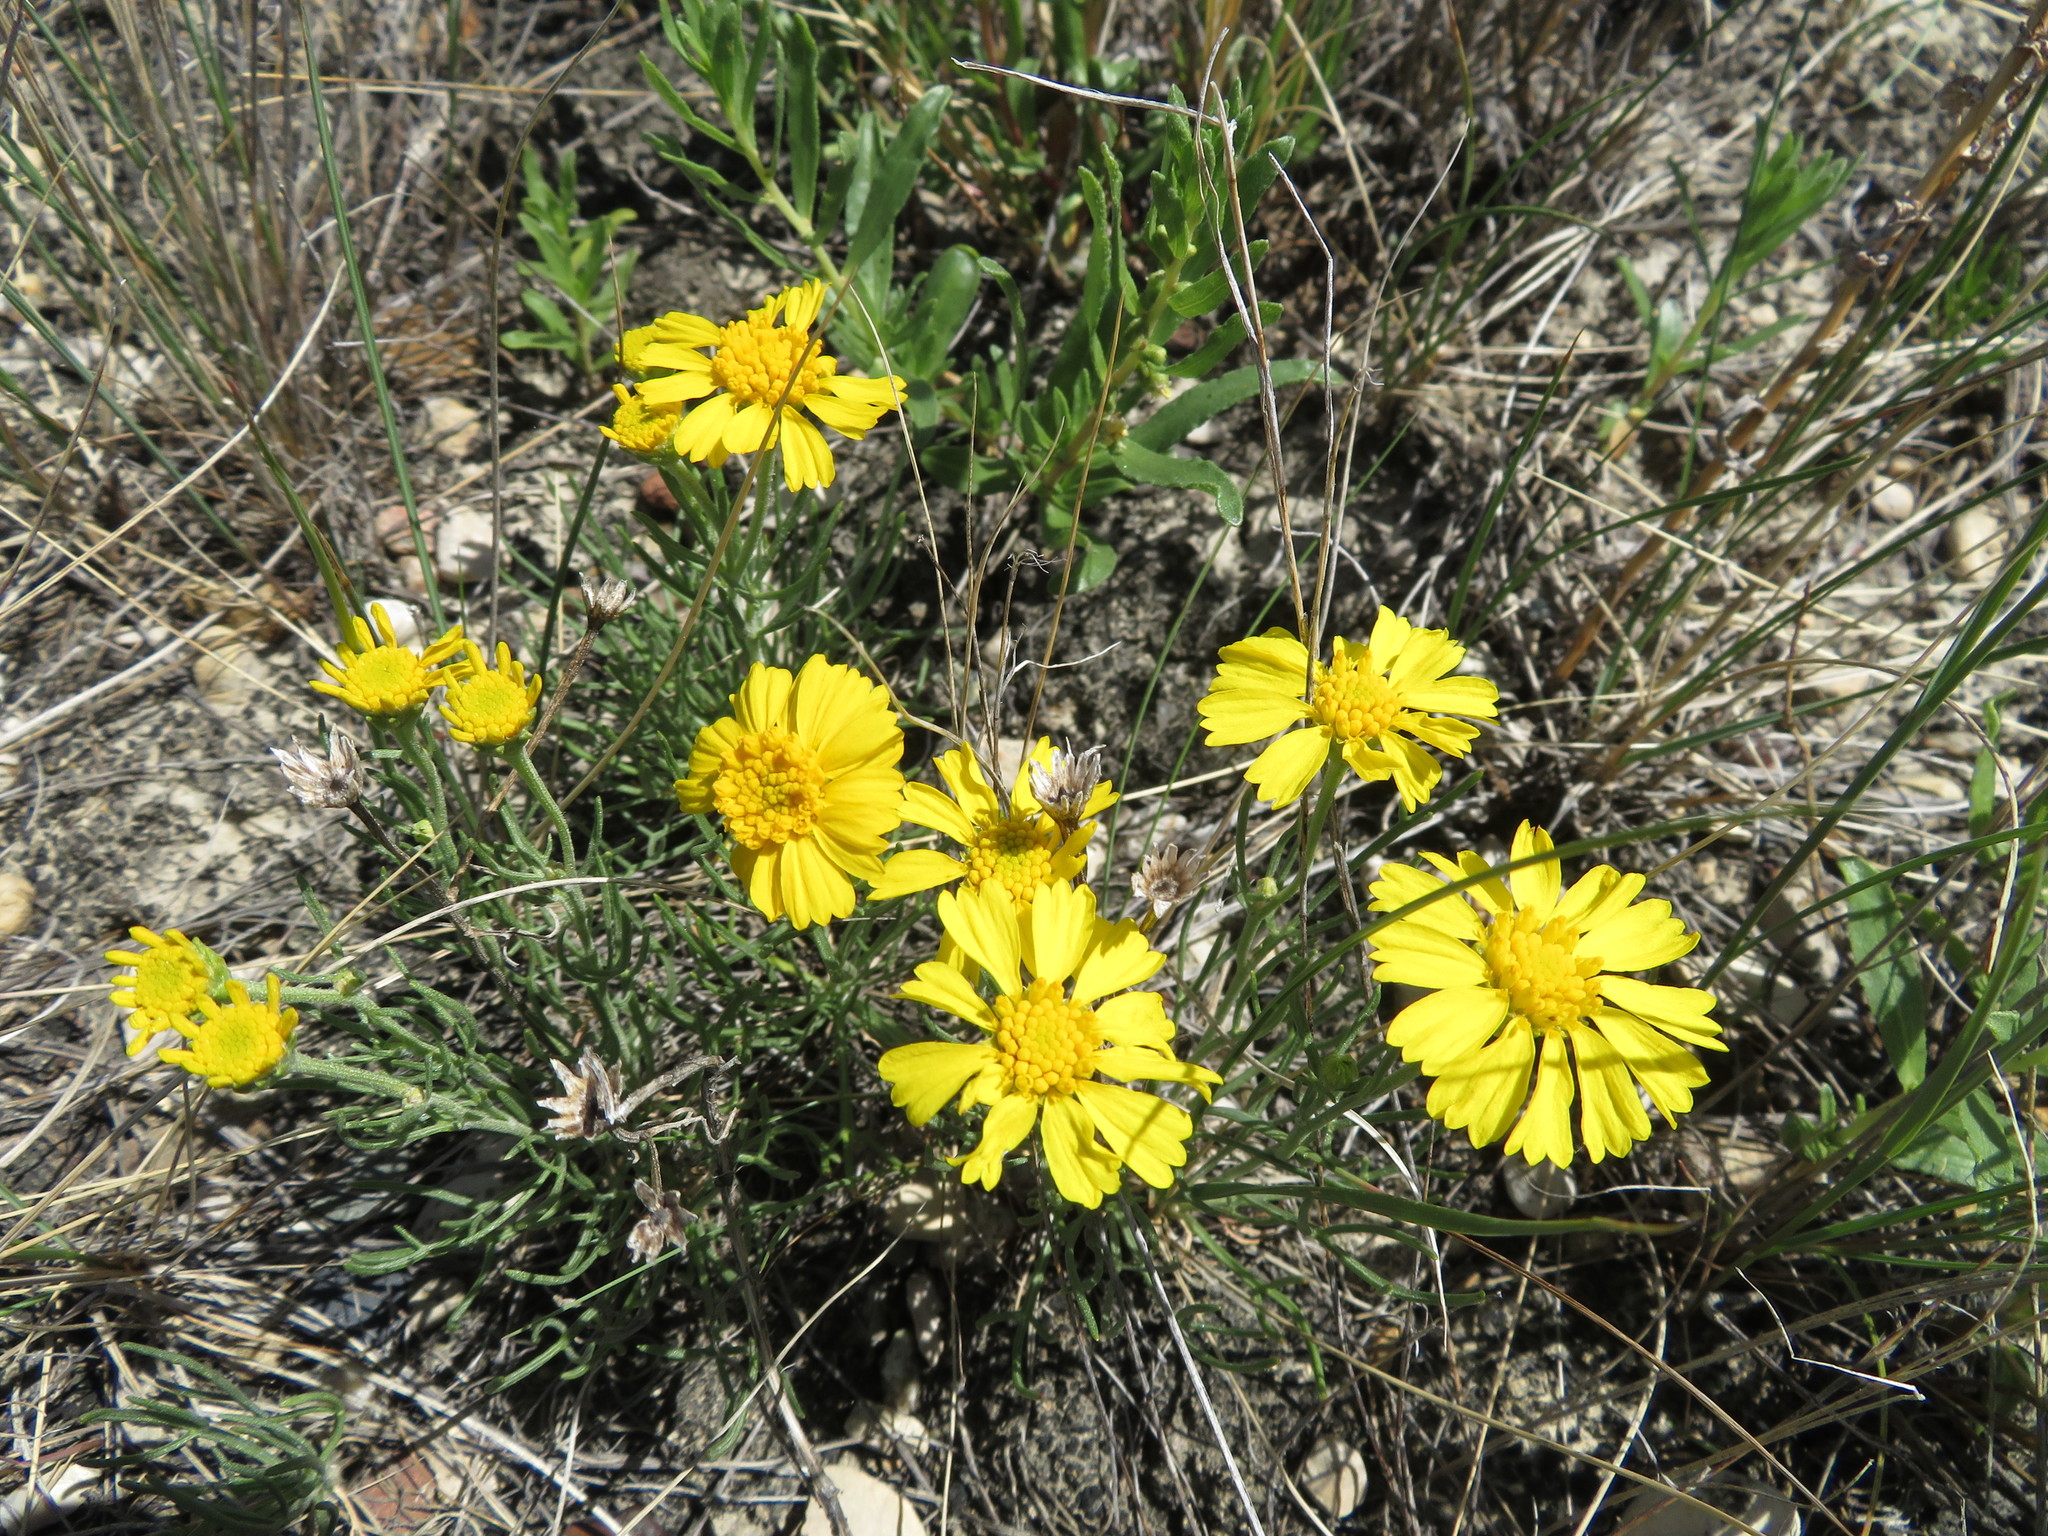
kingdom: Plantae
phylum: Tracheophyta
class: Magnoliopsida
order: Asterales
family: Asteraceae
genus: Hymenoxys
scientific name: Hymenoxys richardsonii
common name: Pingue rubberweed
